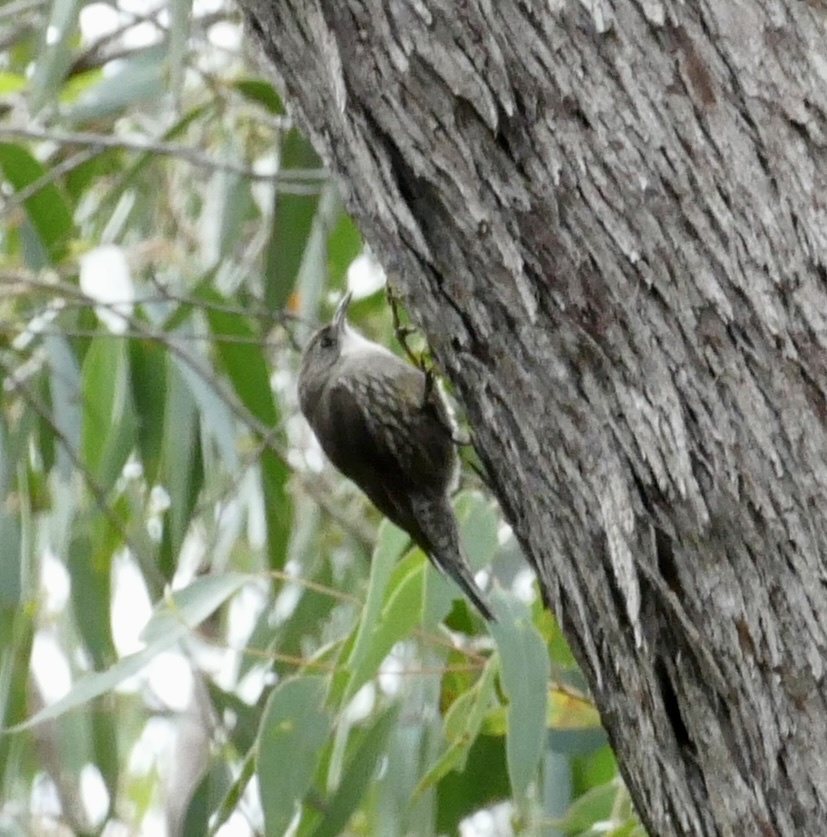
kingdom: Animalia
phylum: Chordata
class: Aves
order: Passeriformes
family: Climacteridae
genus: Cormobates
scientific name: Cormobates leucophaea
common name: White-throated treecreeper
